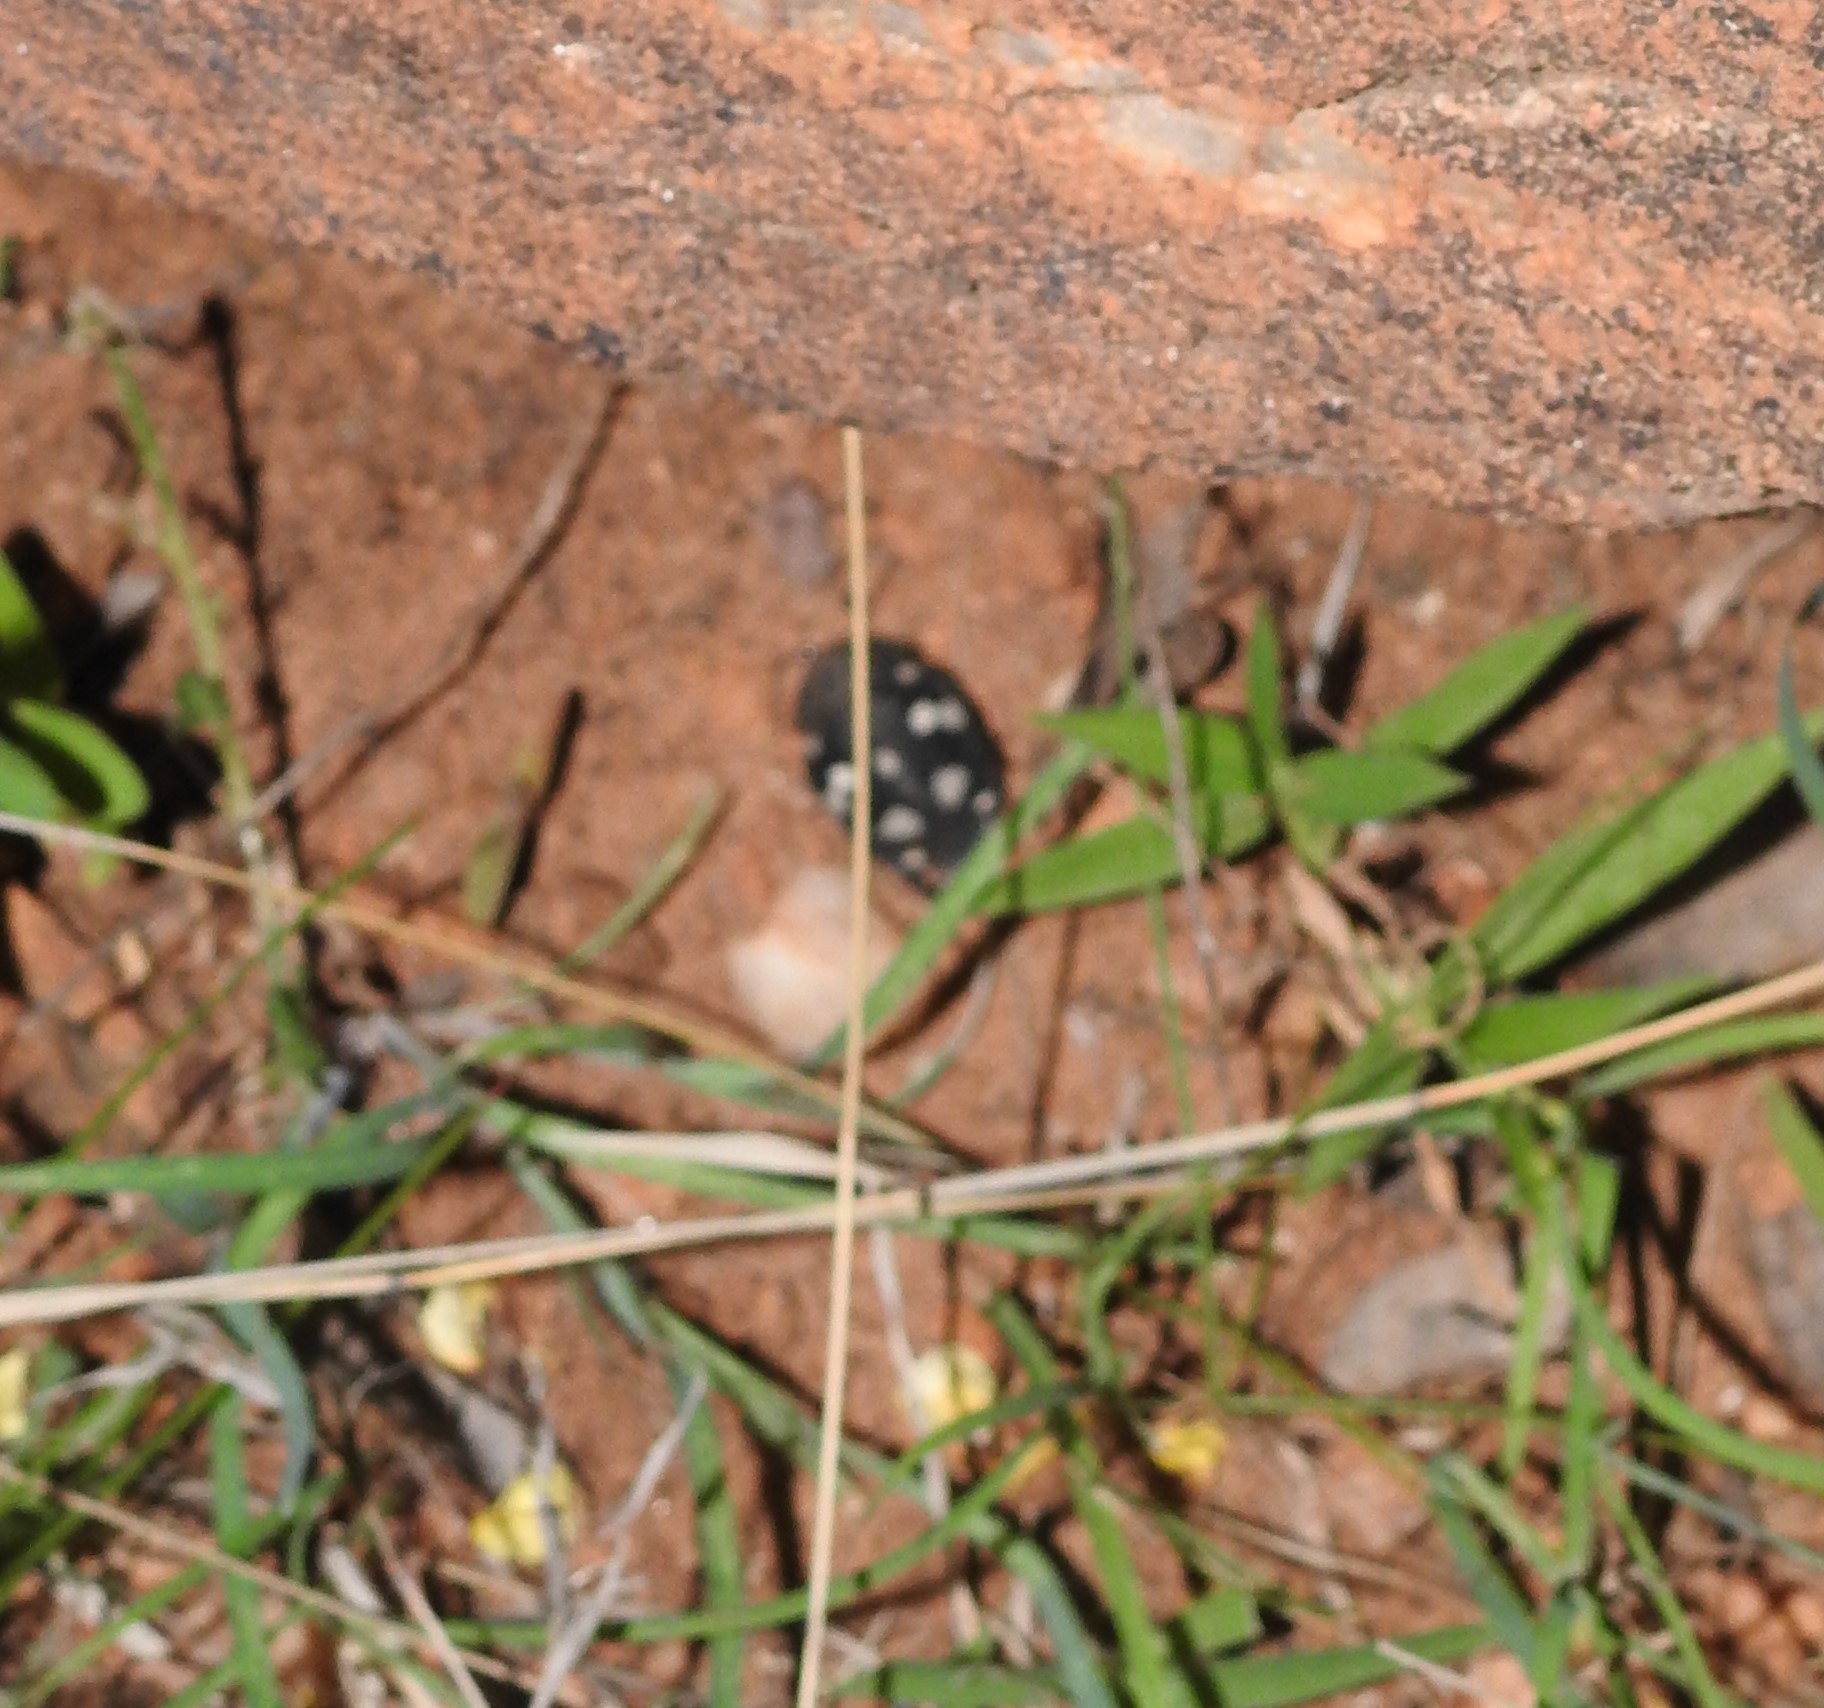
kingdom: Animalia
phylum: Arthropoda
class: Insecta
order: Blattodea
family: Corydiidae
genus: Therea
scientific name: Therea petiveriana
